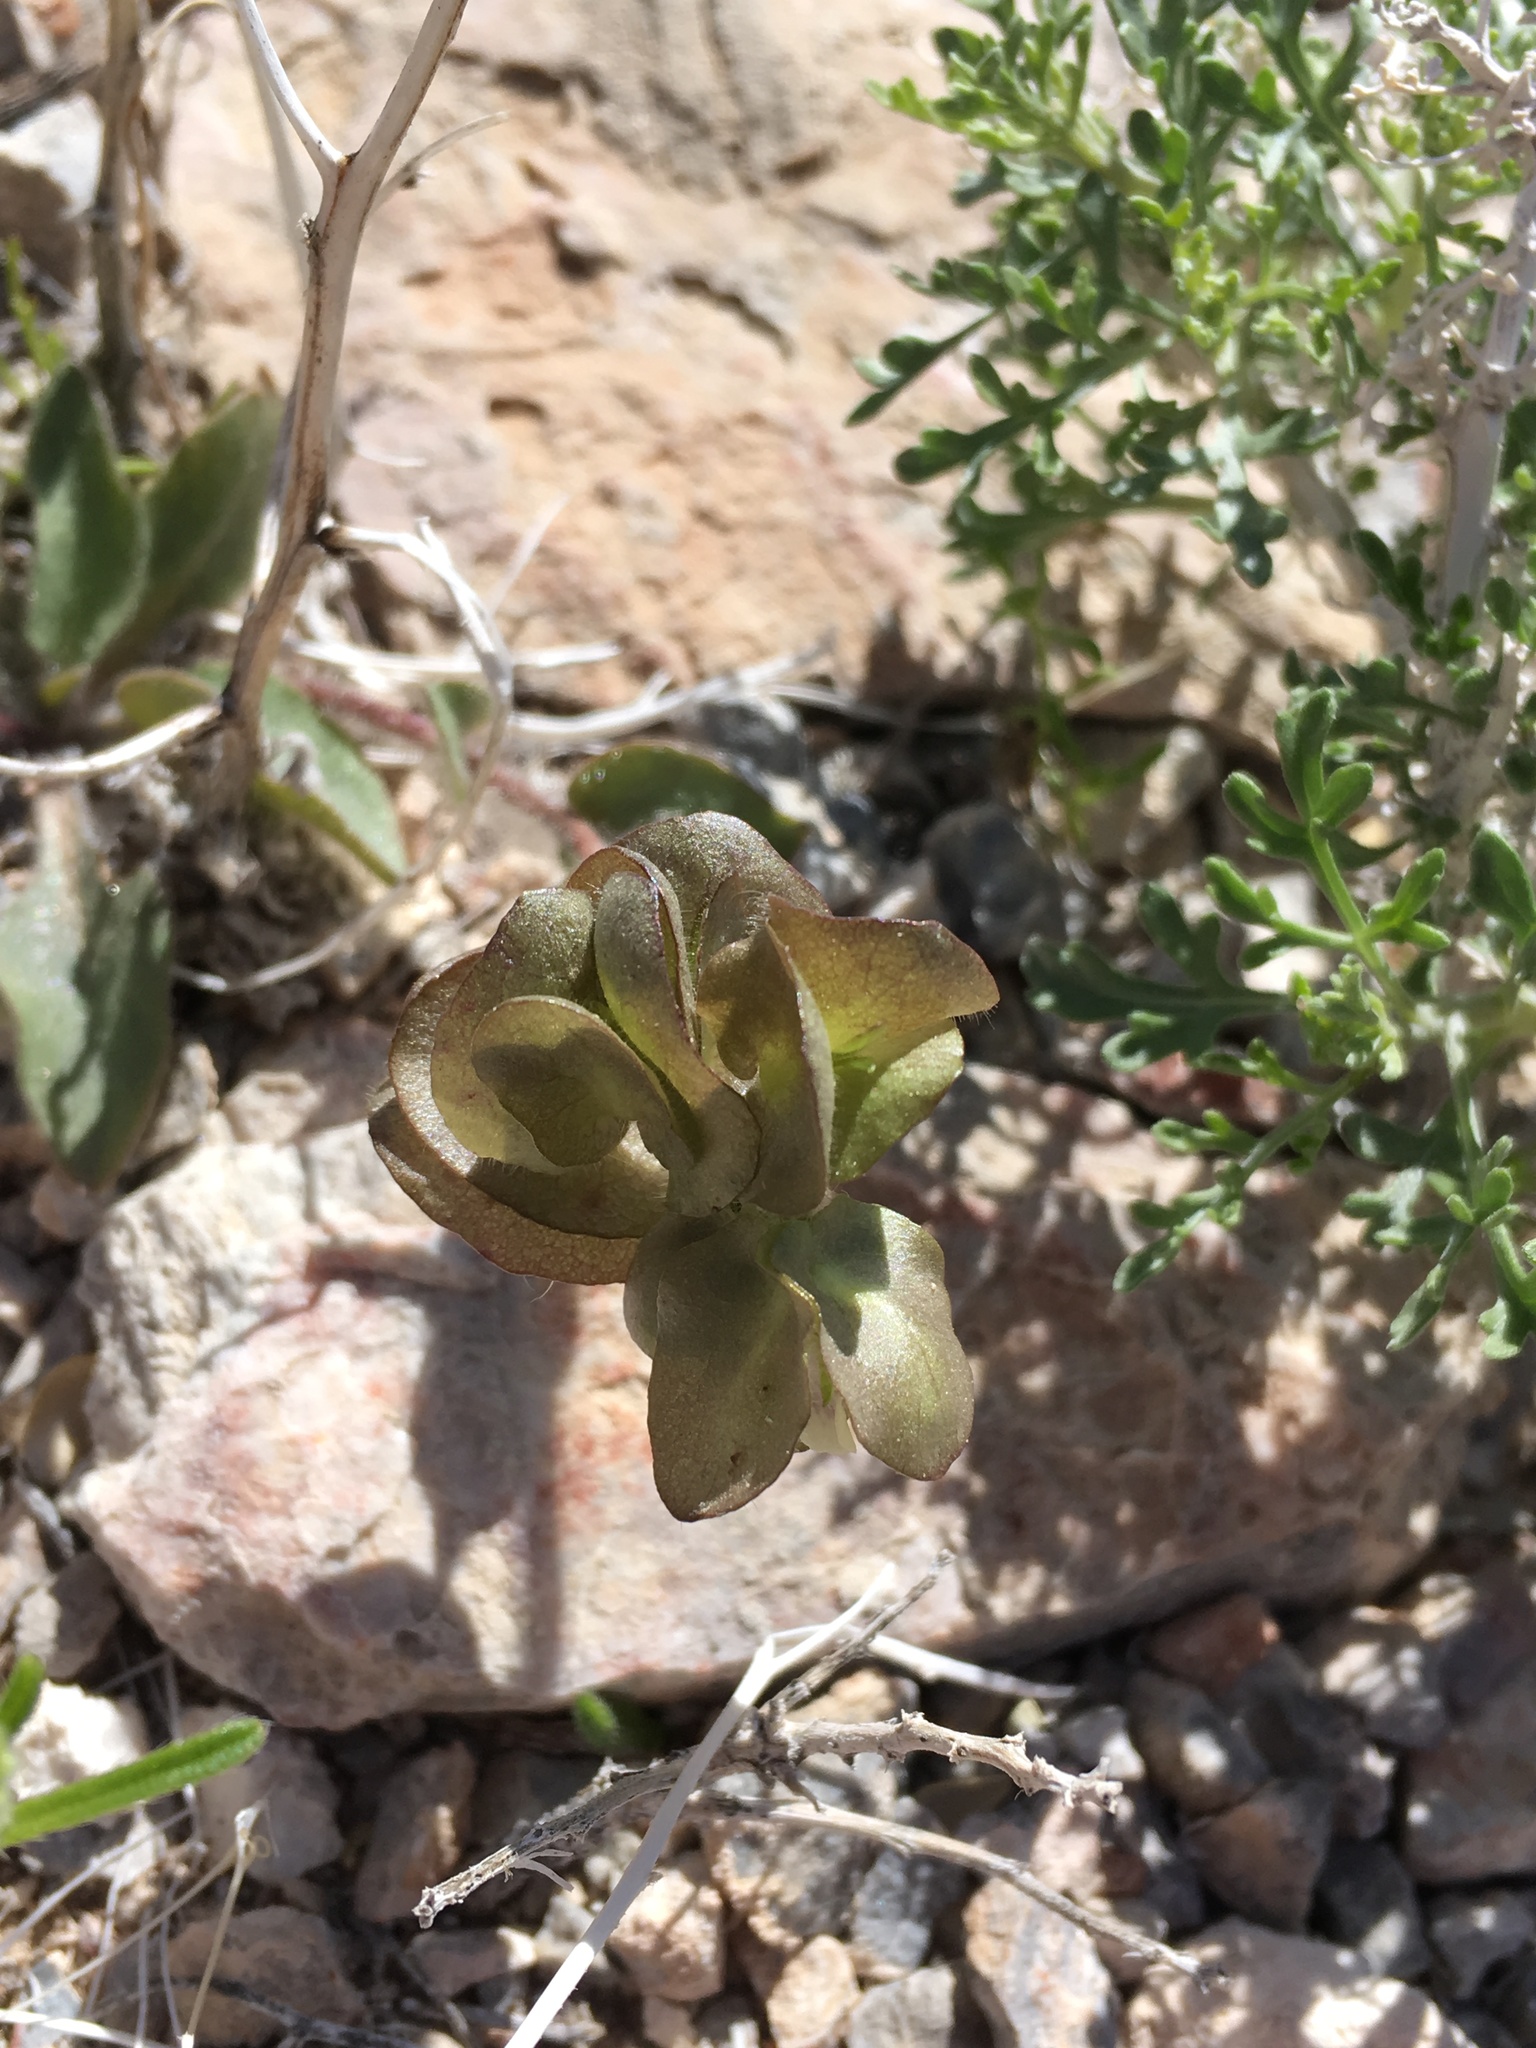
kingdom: Plantae
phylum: Tracheophyta
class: Magnoliopsida
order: Boraginales
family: Hydrophyllaceae
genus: Tricardia
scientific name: Tricardia watsonii
